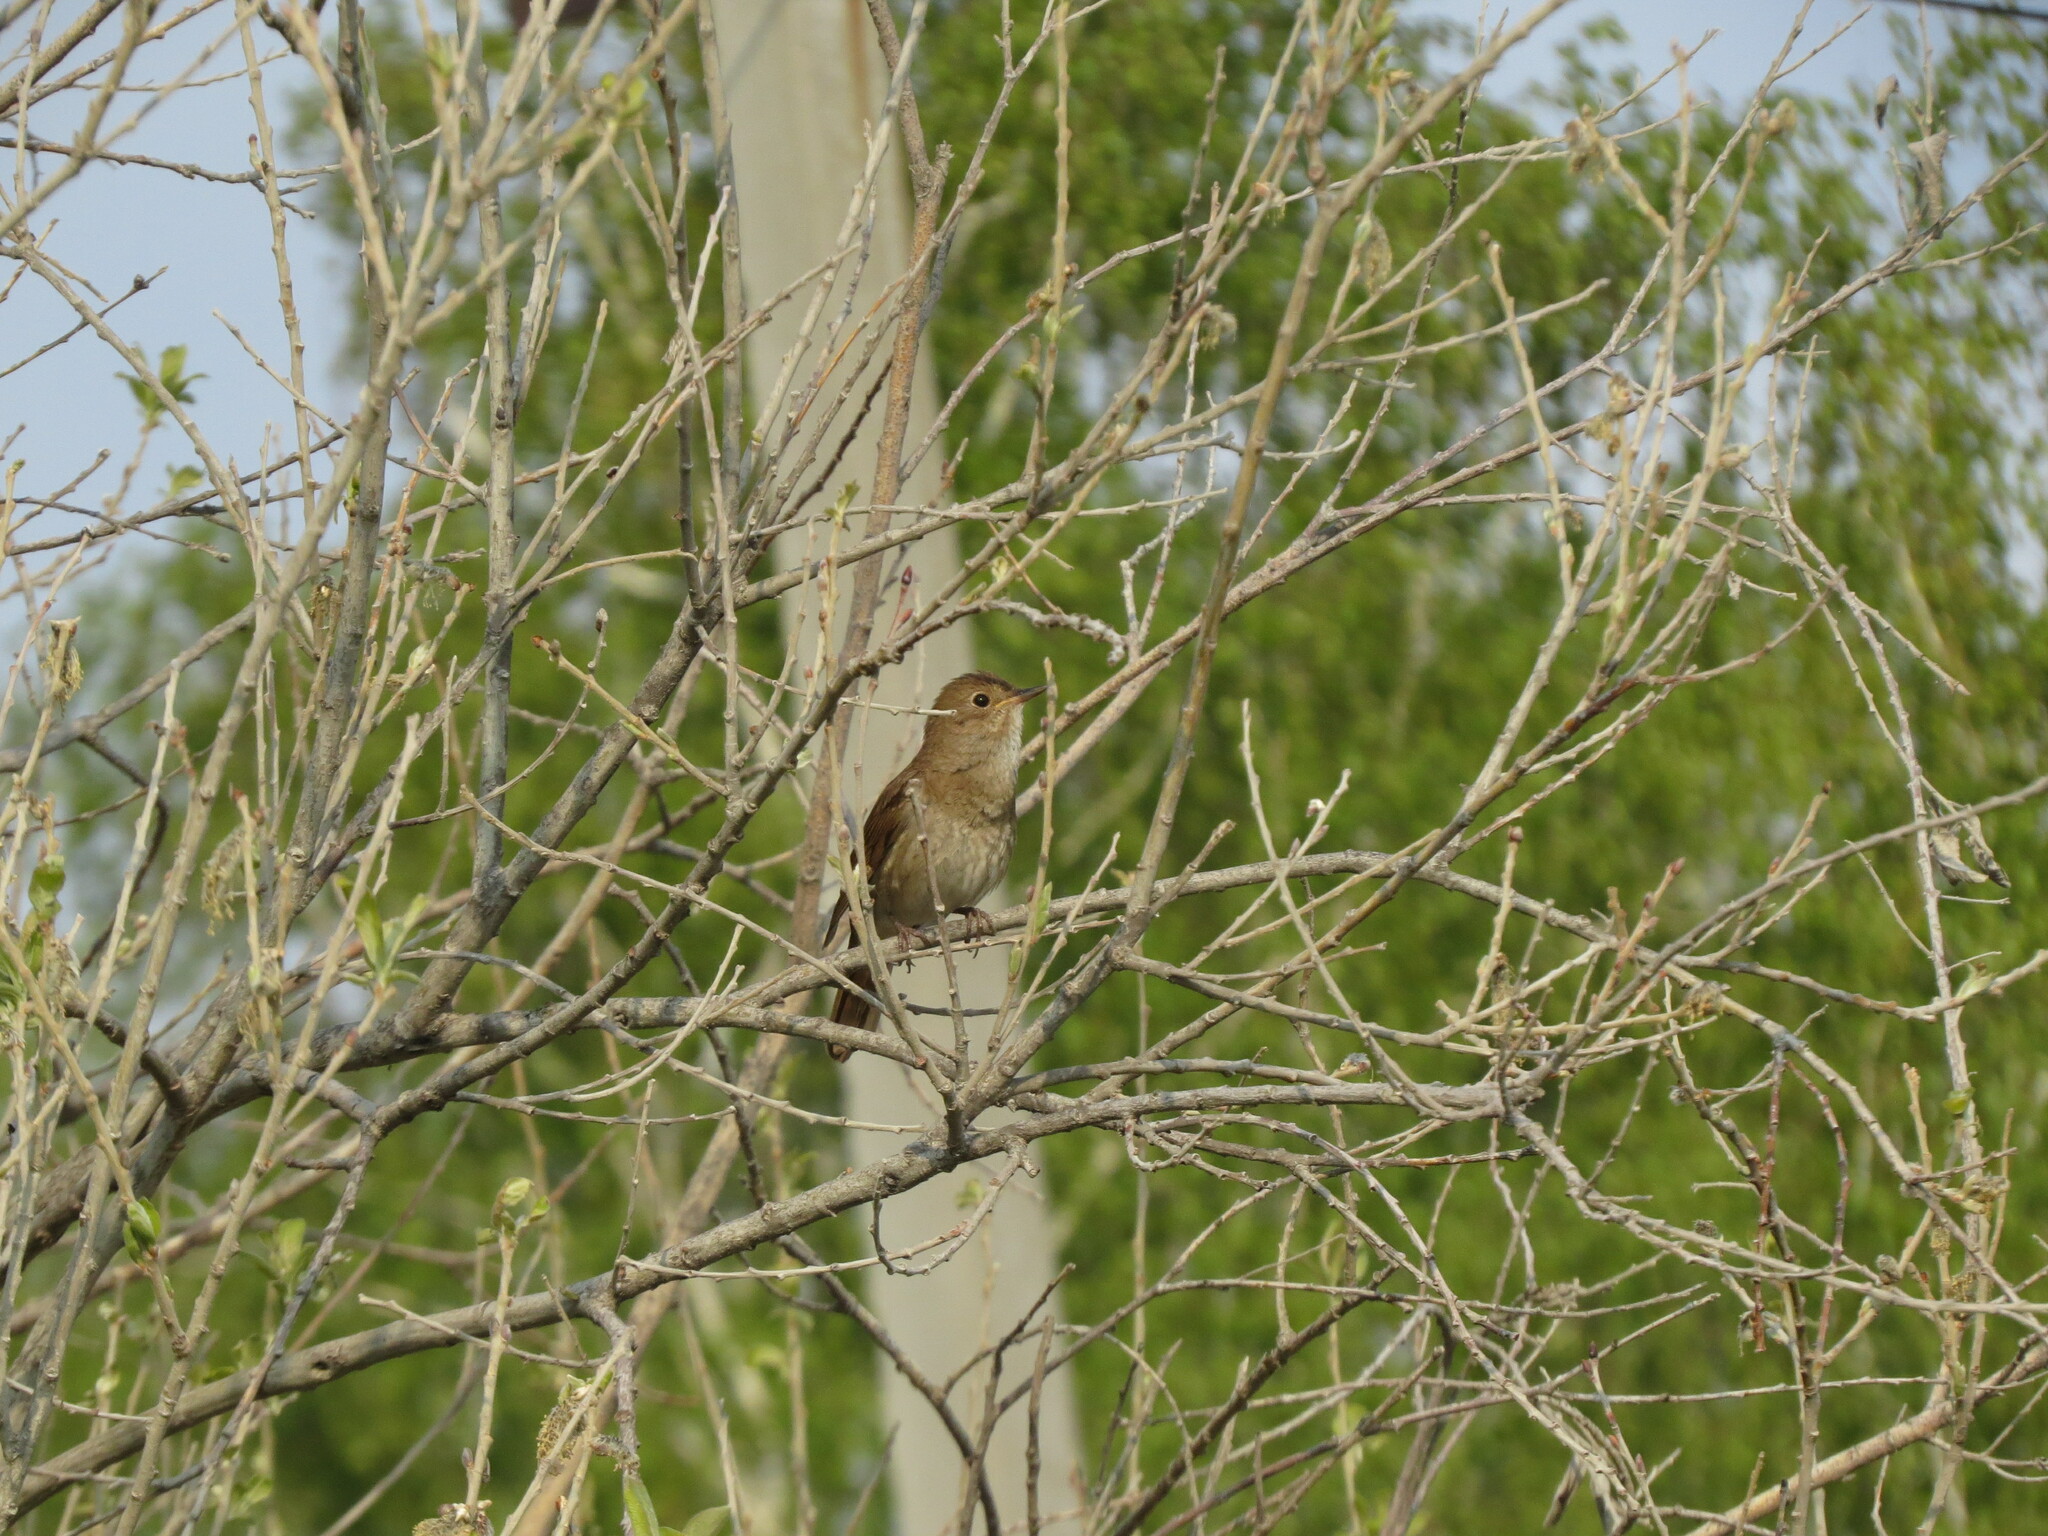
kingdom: Animalia
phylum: Chordata
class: Aves
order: Passeriformes
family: Muscicapidae
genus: Luscinia
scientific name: Luscinia luscinia
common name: Thrush nightingale
